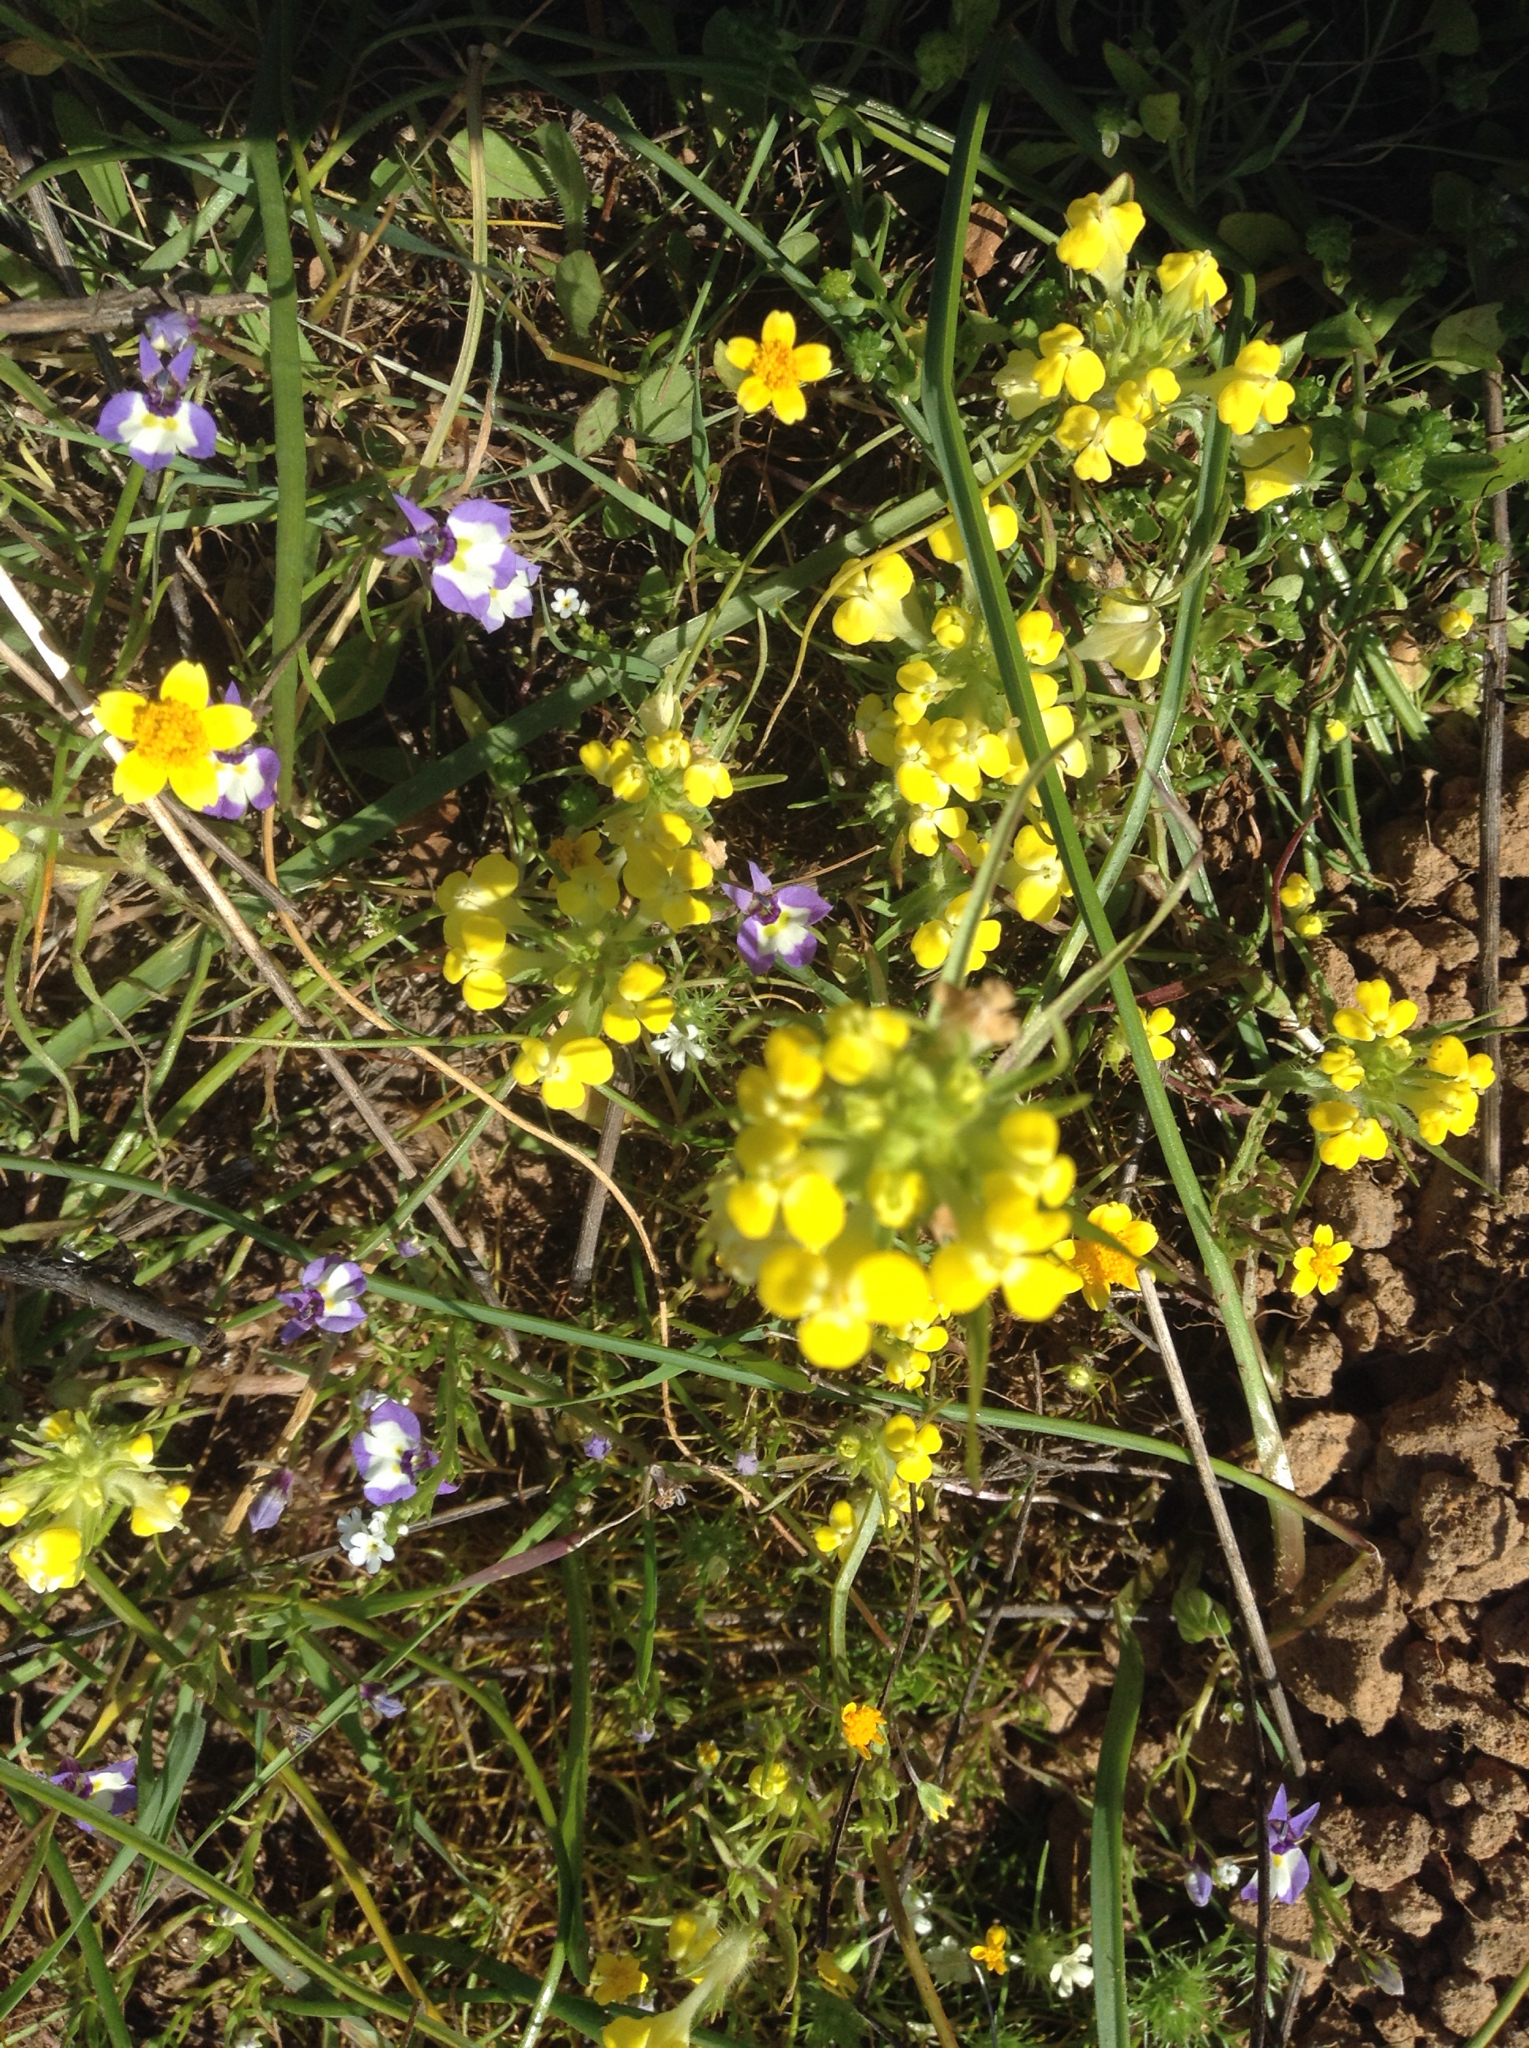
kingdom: Plantae
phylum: Tracheophyta
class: Magnoliopsida
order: Lamiales
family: Orobanchaceae
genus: Castilleja
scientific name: Castilleja campestris
